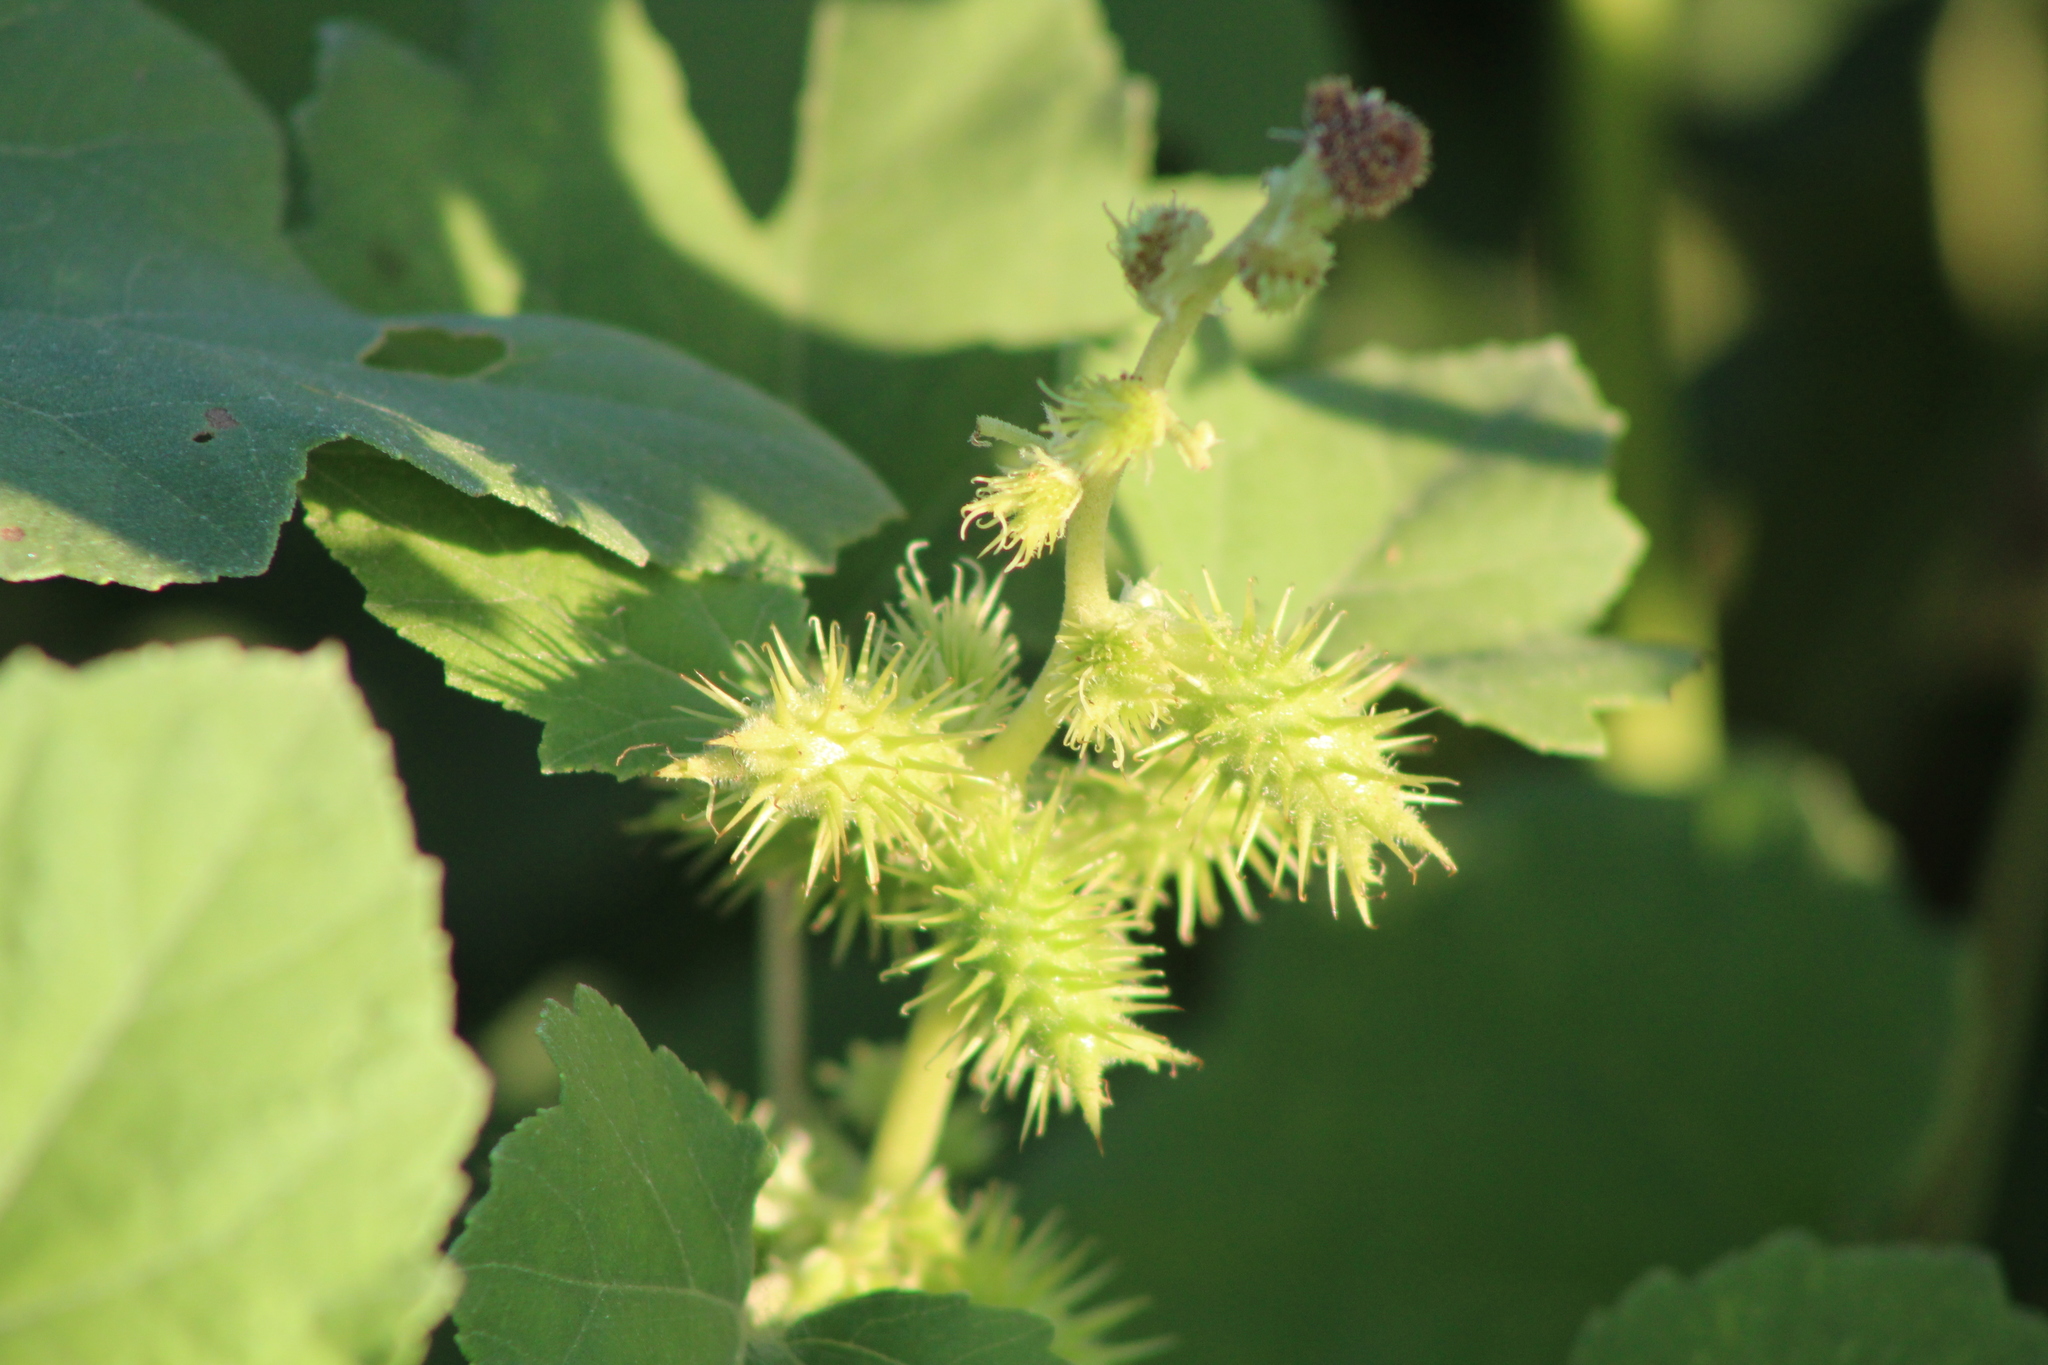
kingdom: Plantae
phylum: Tracheophyta
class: Magnoliopsida
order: Asterales
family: Asteraceae
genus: Xanthium
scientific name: Xanthium strumarium
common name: Rough cocklebur
